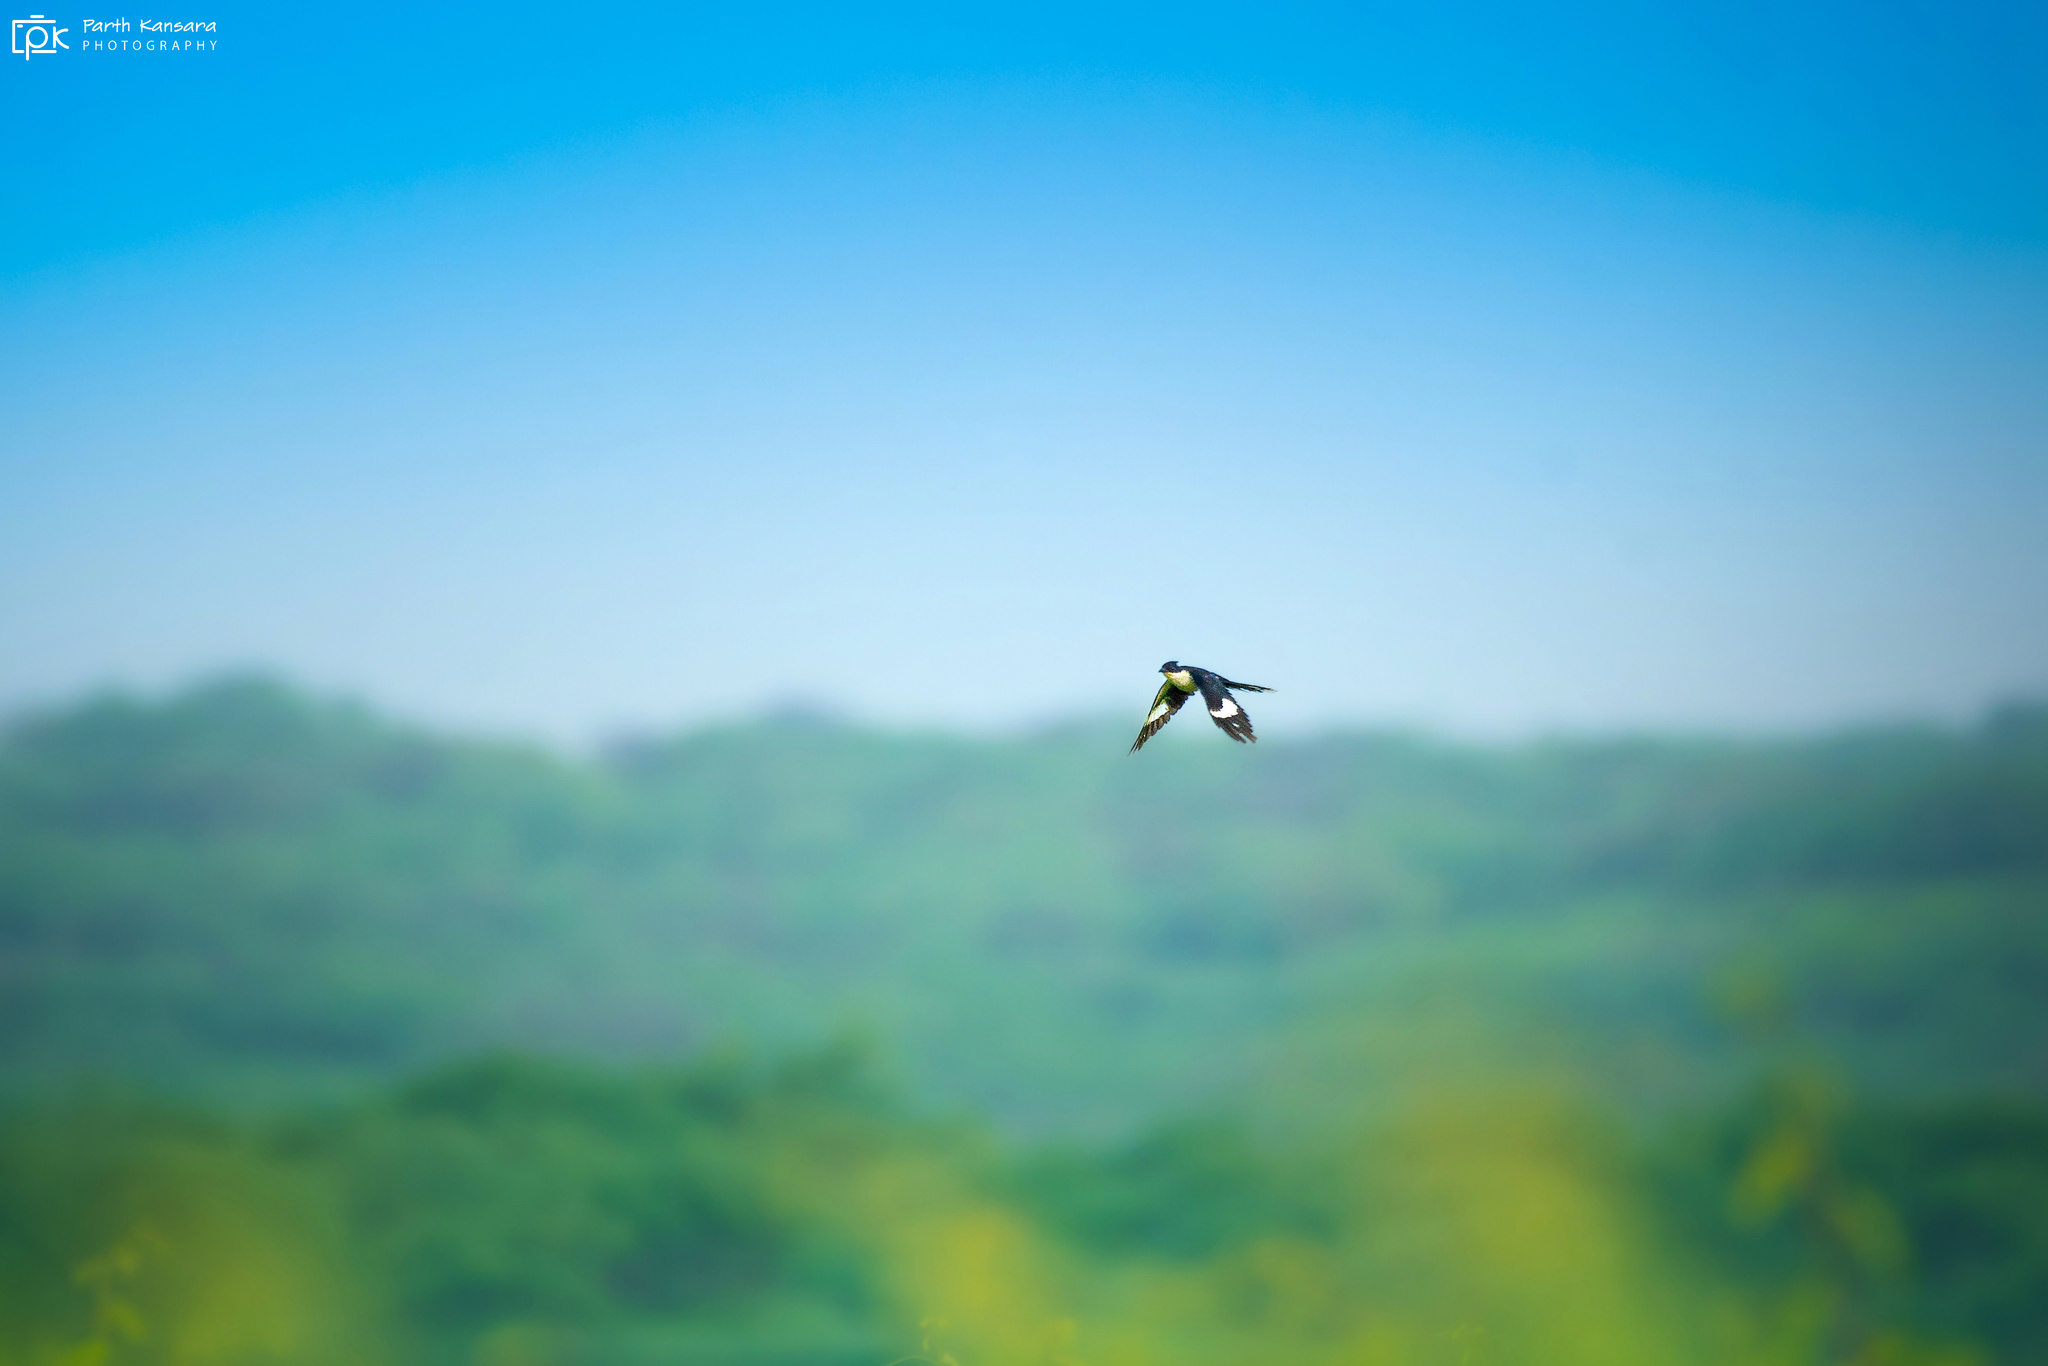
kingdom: Animalia
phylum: Chordata
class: Aves
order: Cuculiformes
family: Cuculidae
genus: Clamator
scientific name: Clamator jacobinus
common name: Jacobin cuckoo
